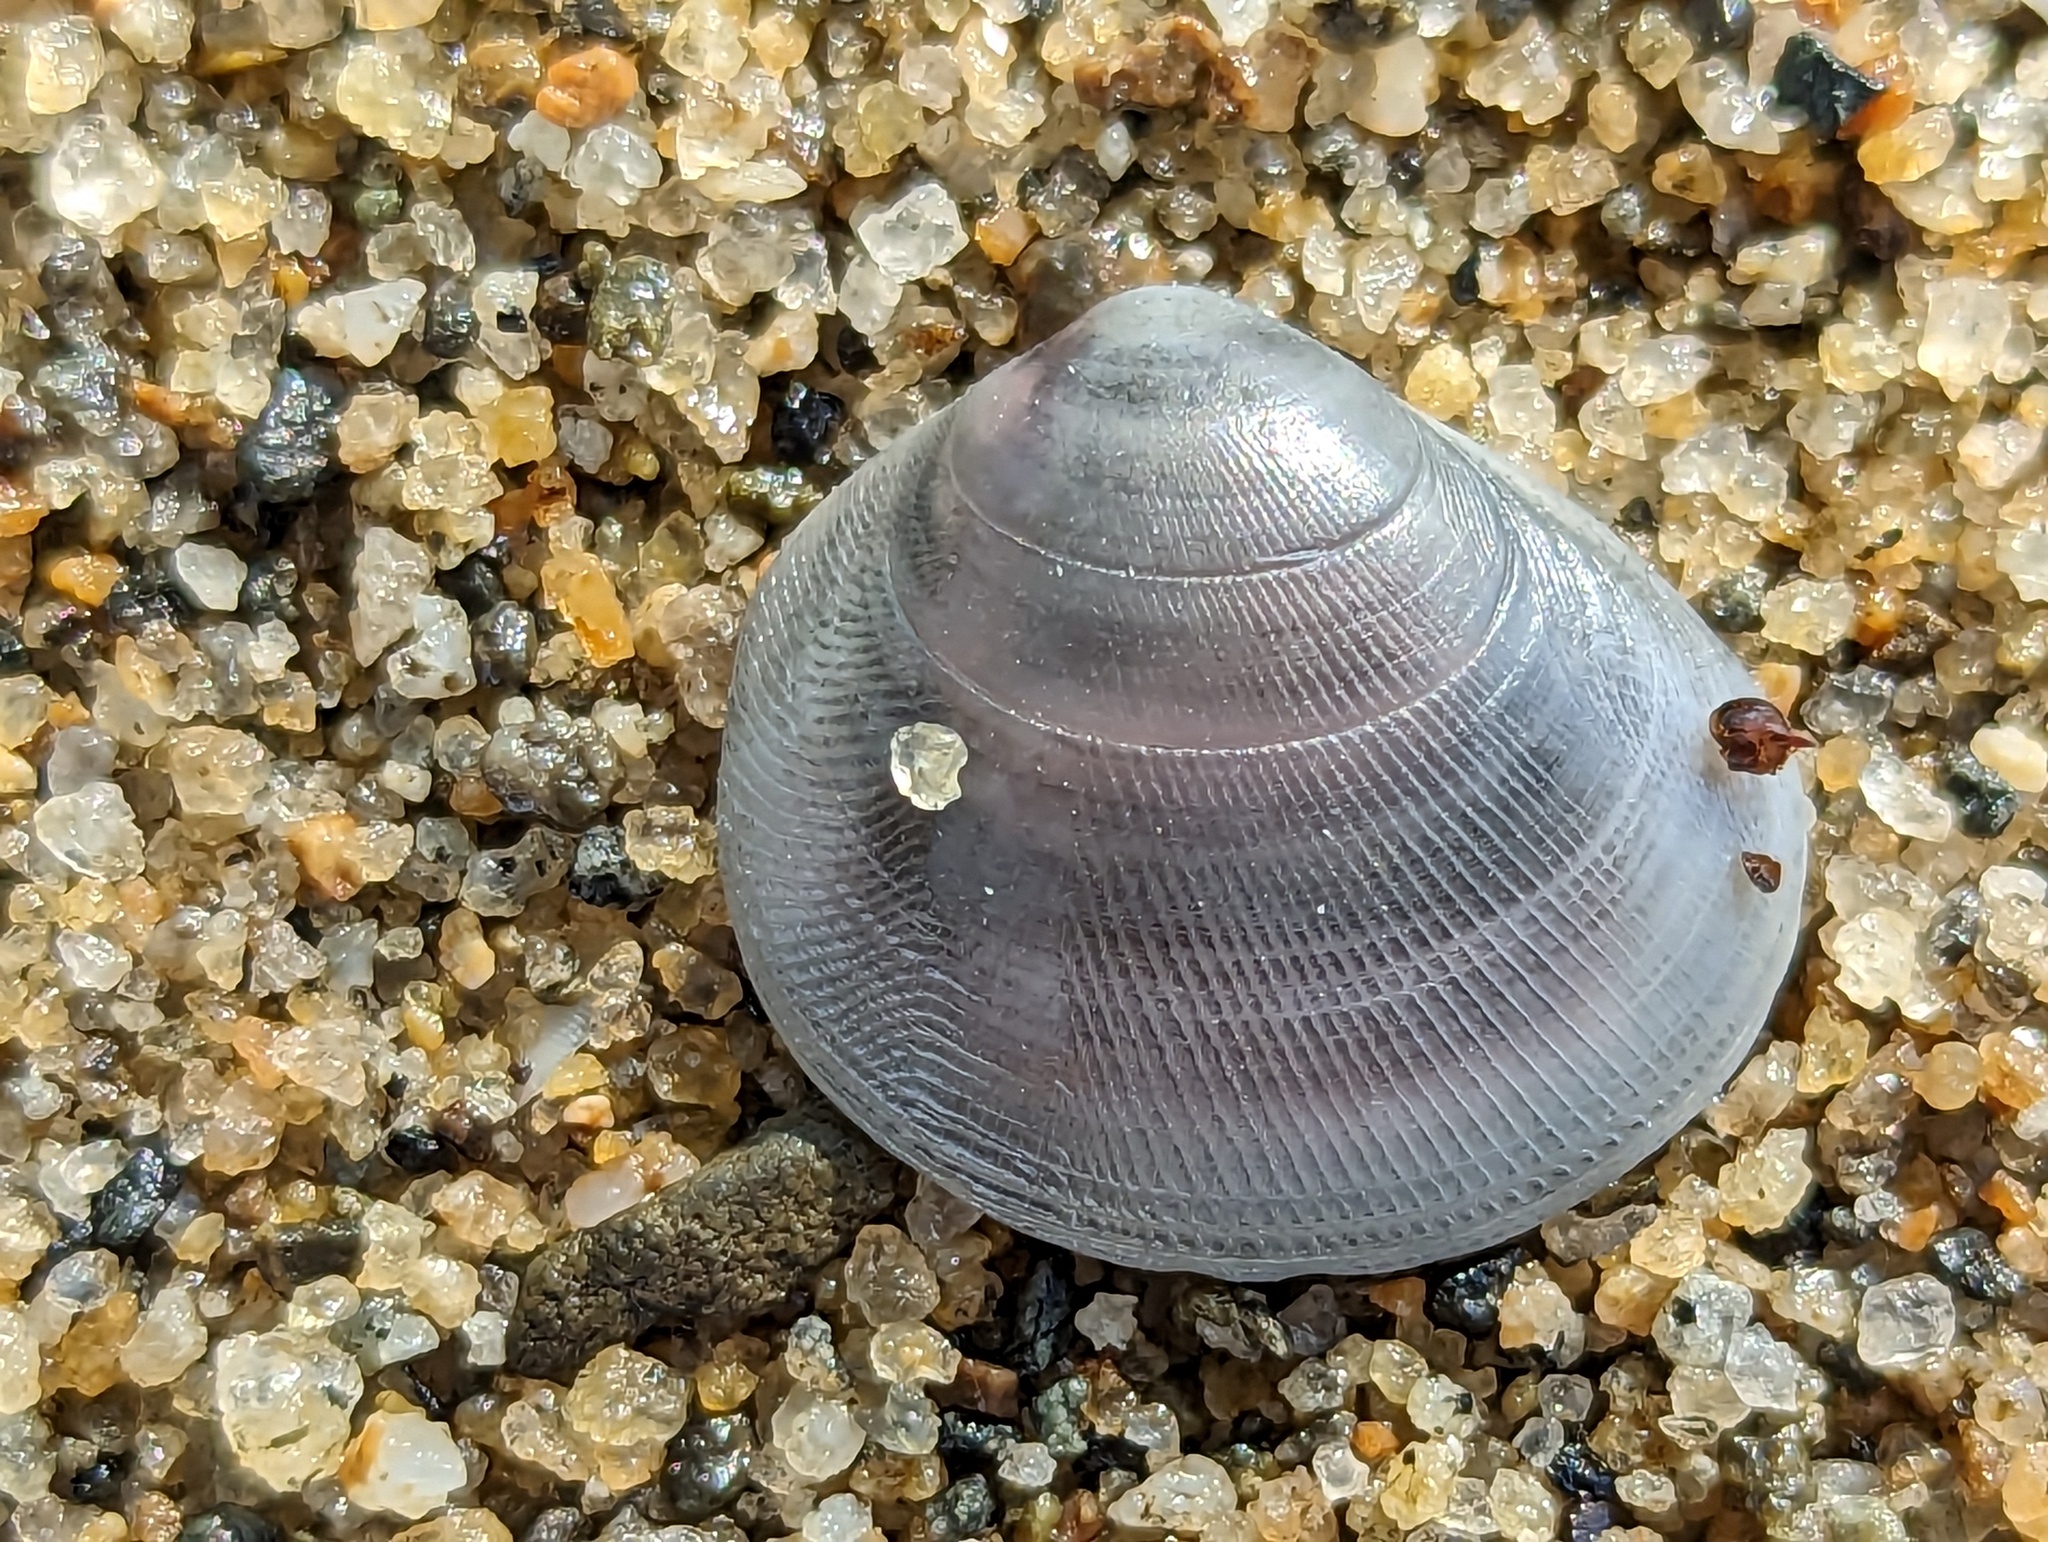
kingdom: Animalia
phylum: Mollusca
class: Bivalvia
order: Cardiida
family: Tellinidae
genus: Strigilla
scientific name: Strigilla carnaria
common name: Large strigilla
